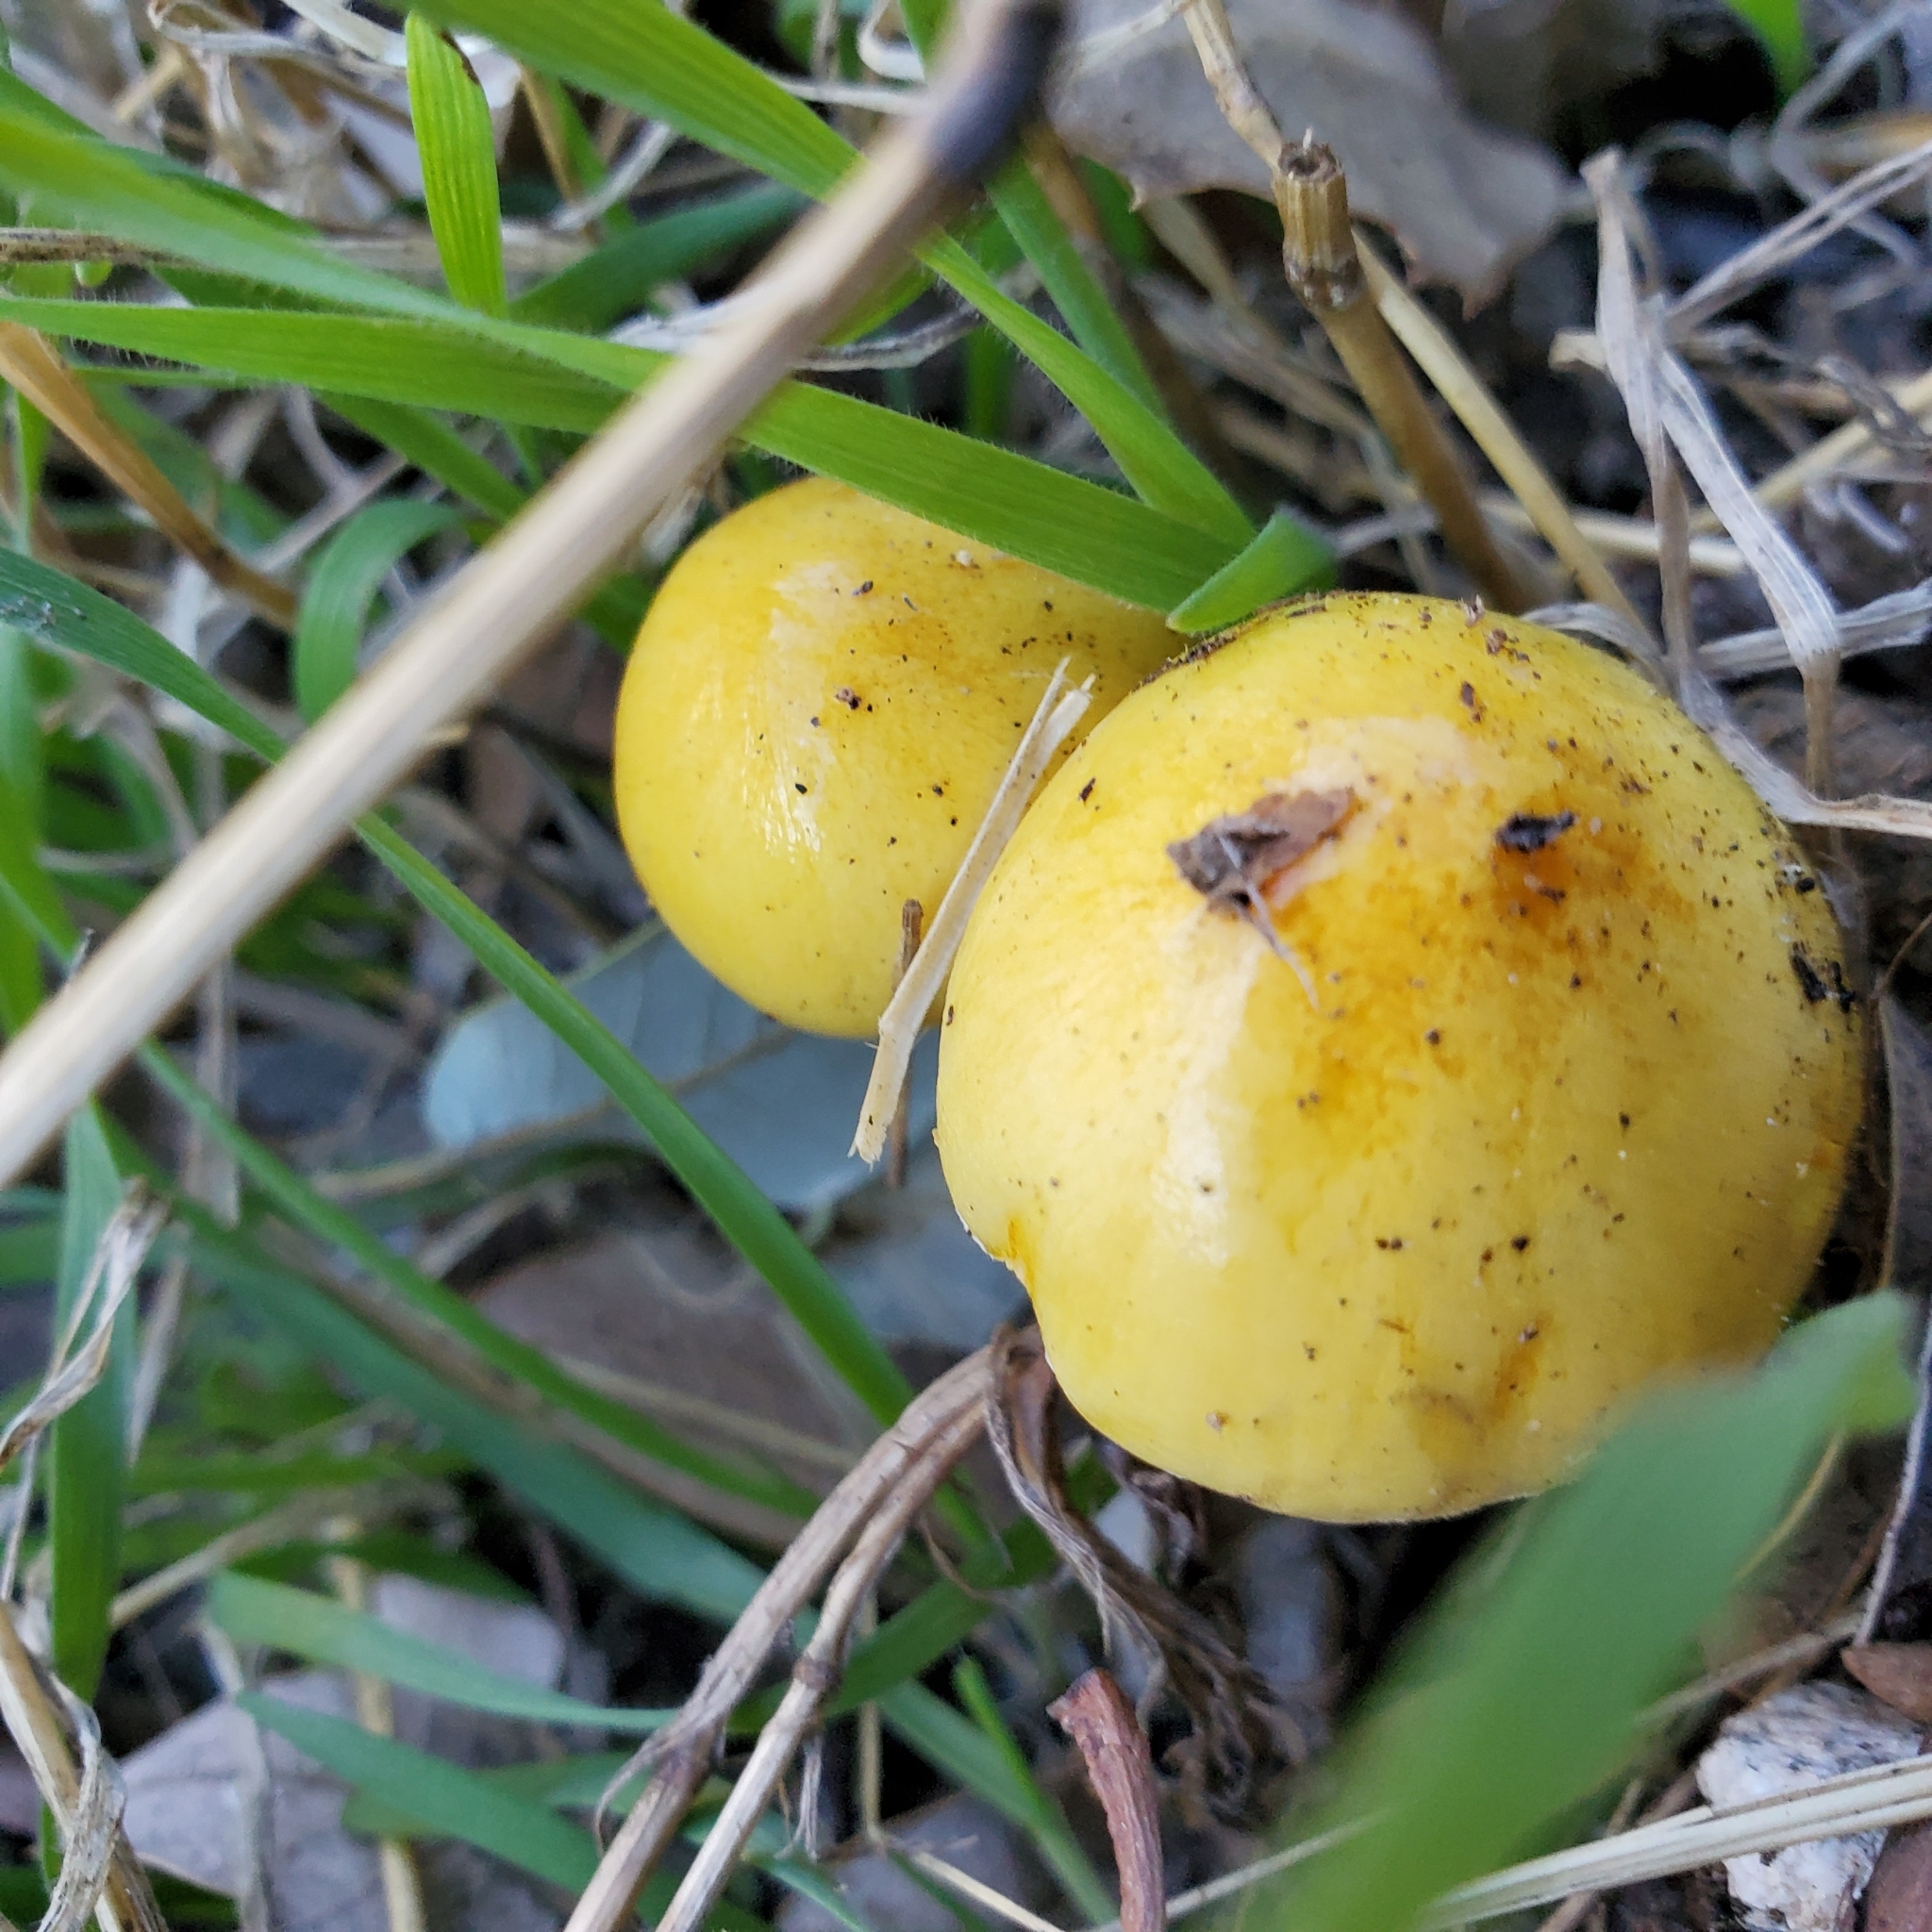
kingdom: Fungi
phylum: Basidiomycota
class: Agaricomycetes
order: Agaricales
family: Bolbitiaceae
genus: Bolbitius
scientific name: Bolbitius titubans
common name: Yellow fieldcap
